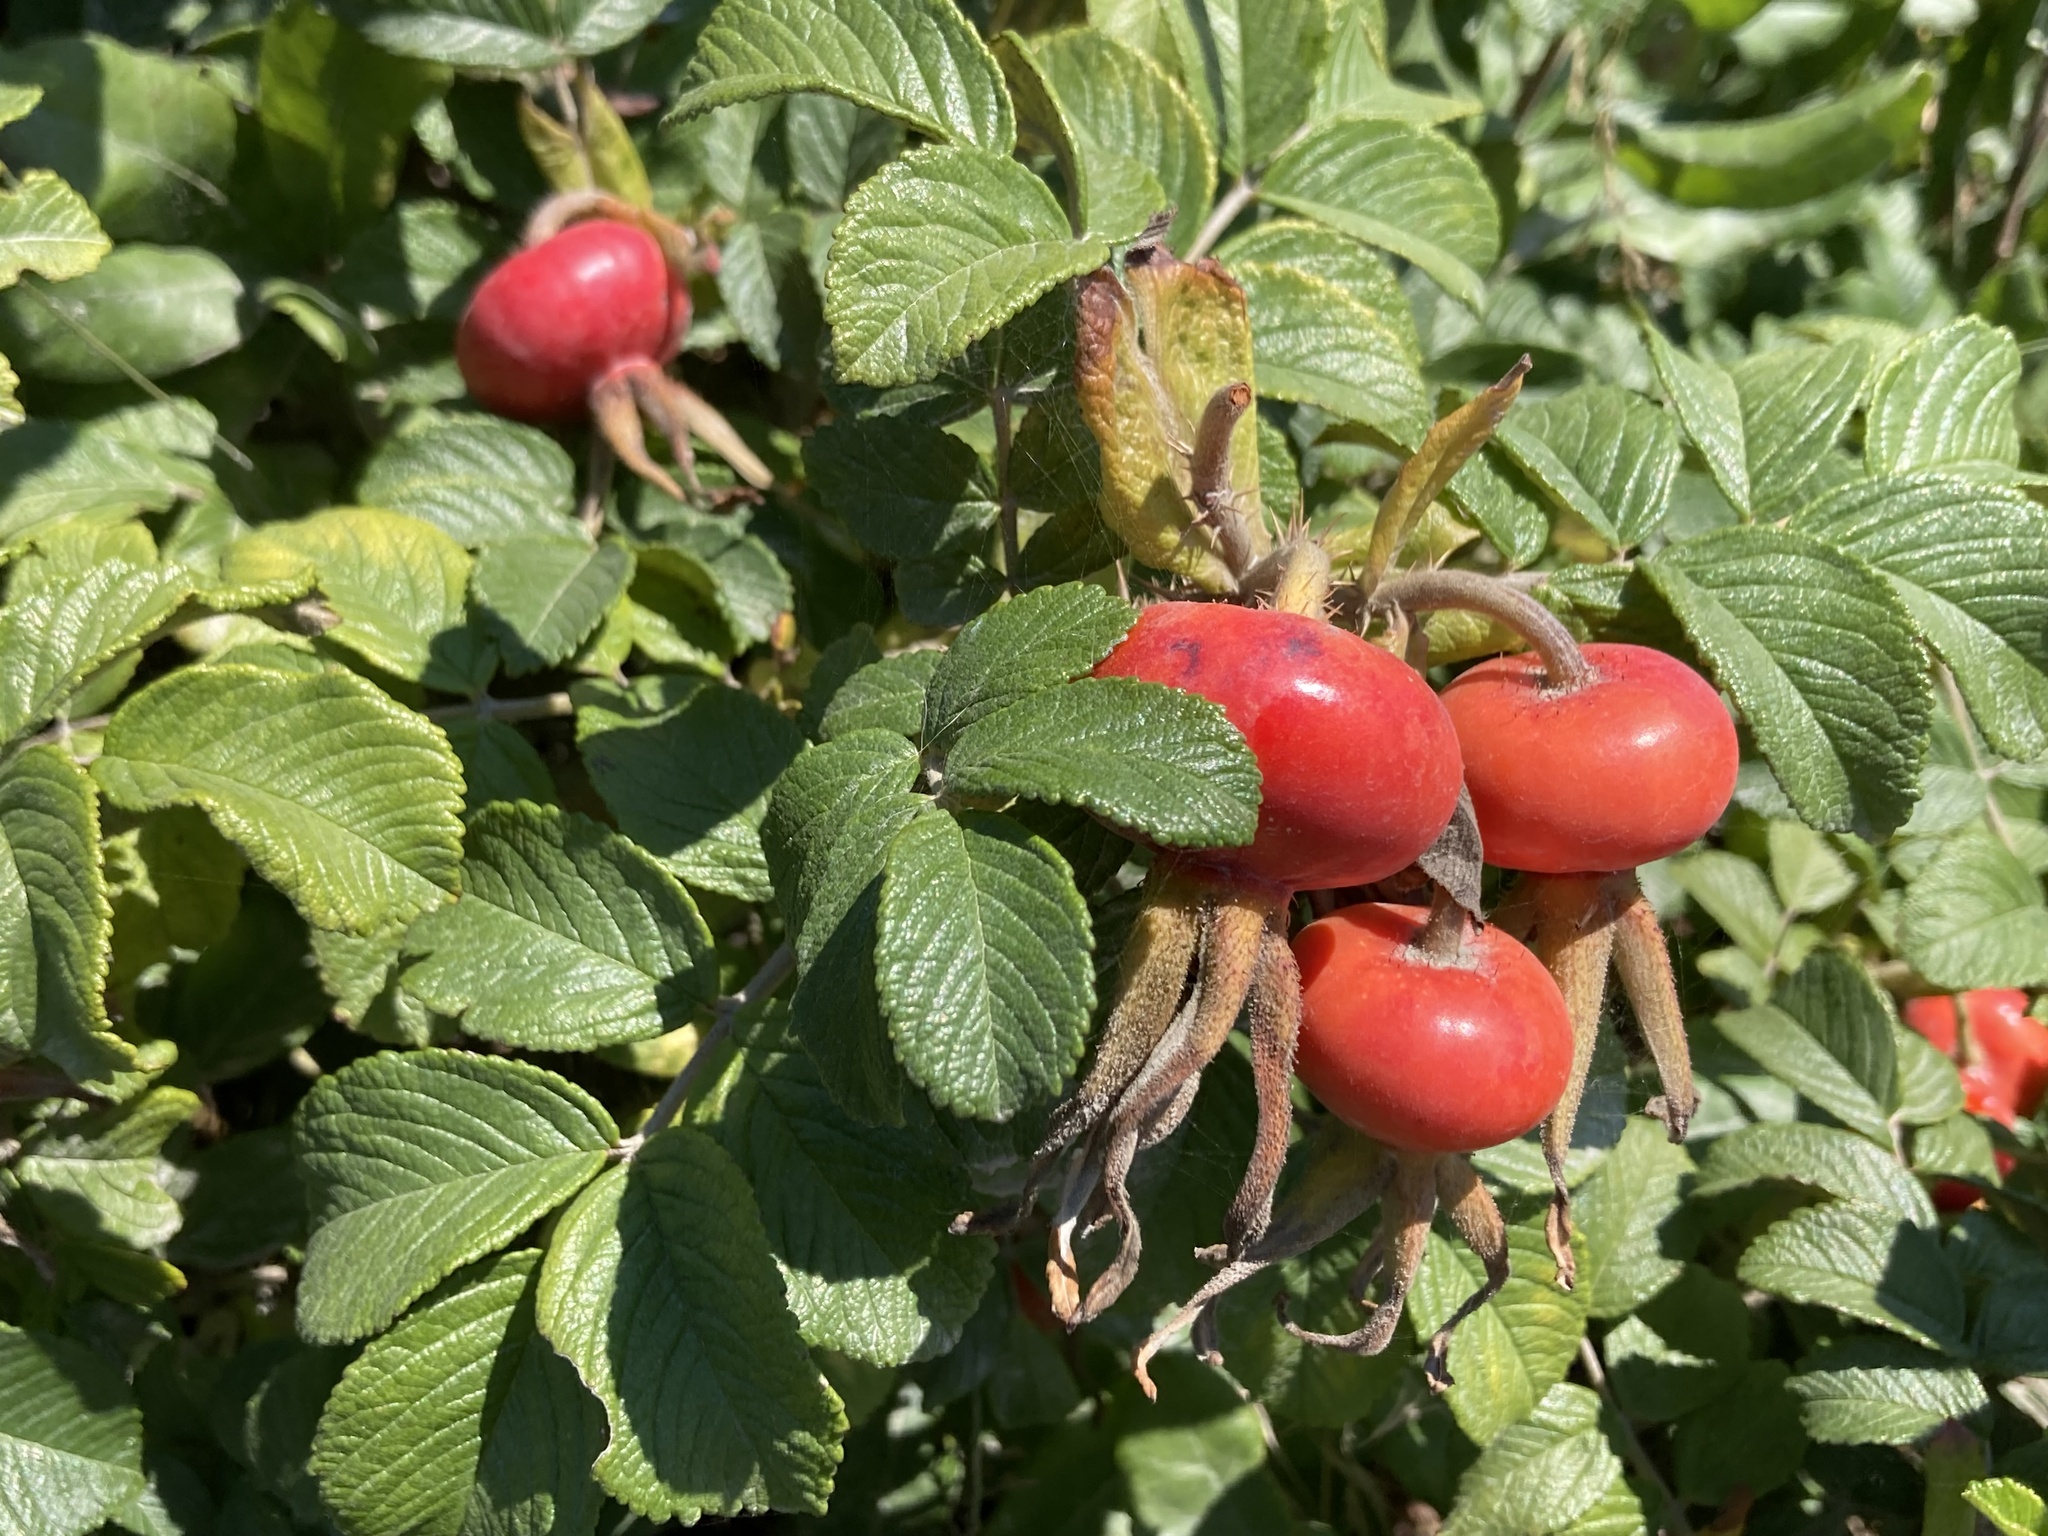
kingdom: Plantae
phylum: Tracheophyta
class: Magnoliopsida
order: Rosales
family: Rosaceae
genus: Rosa
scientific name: Rosa rugosa
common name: Japanese rose
